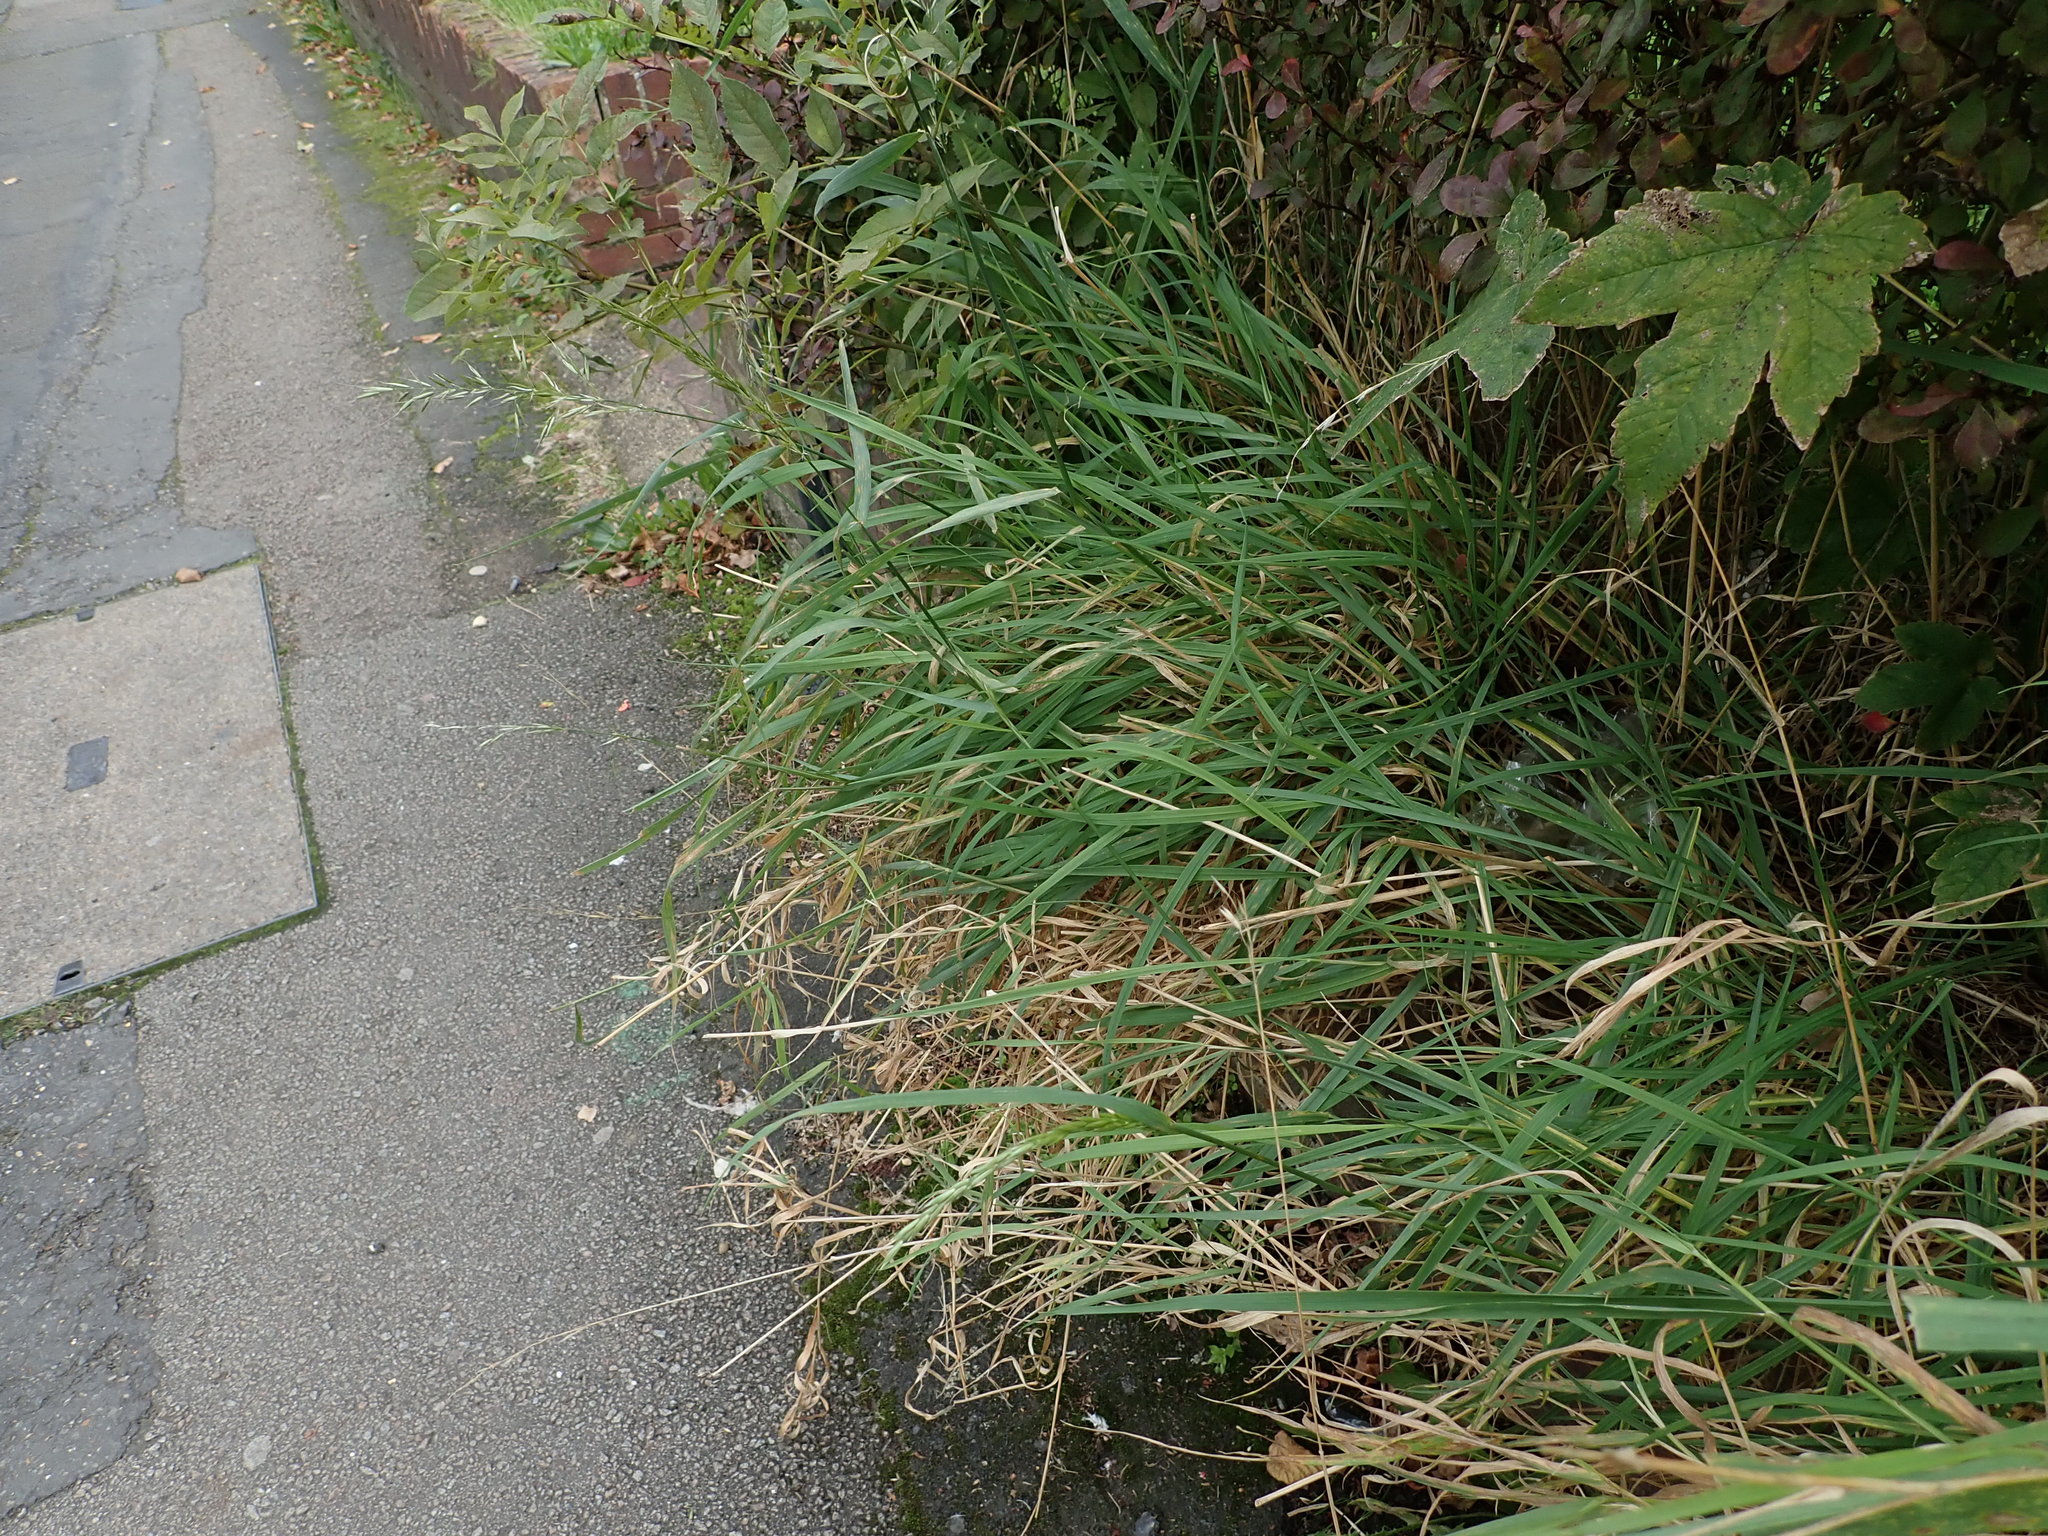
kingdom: Plantae
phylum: Tracheophyta
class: Liliopsida
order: Poales
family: Poaceae
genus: Arrhenatherum
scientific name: Arrhenatherum elatius
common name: Tall oatgrass
